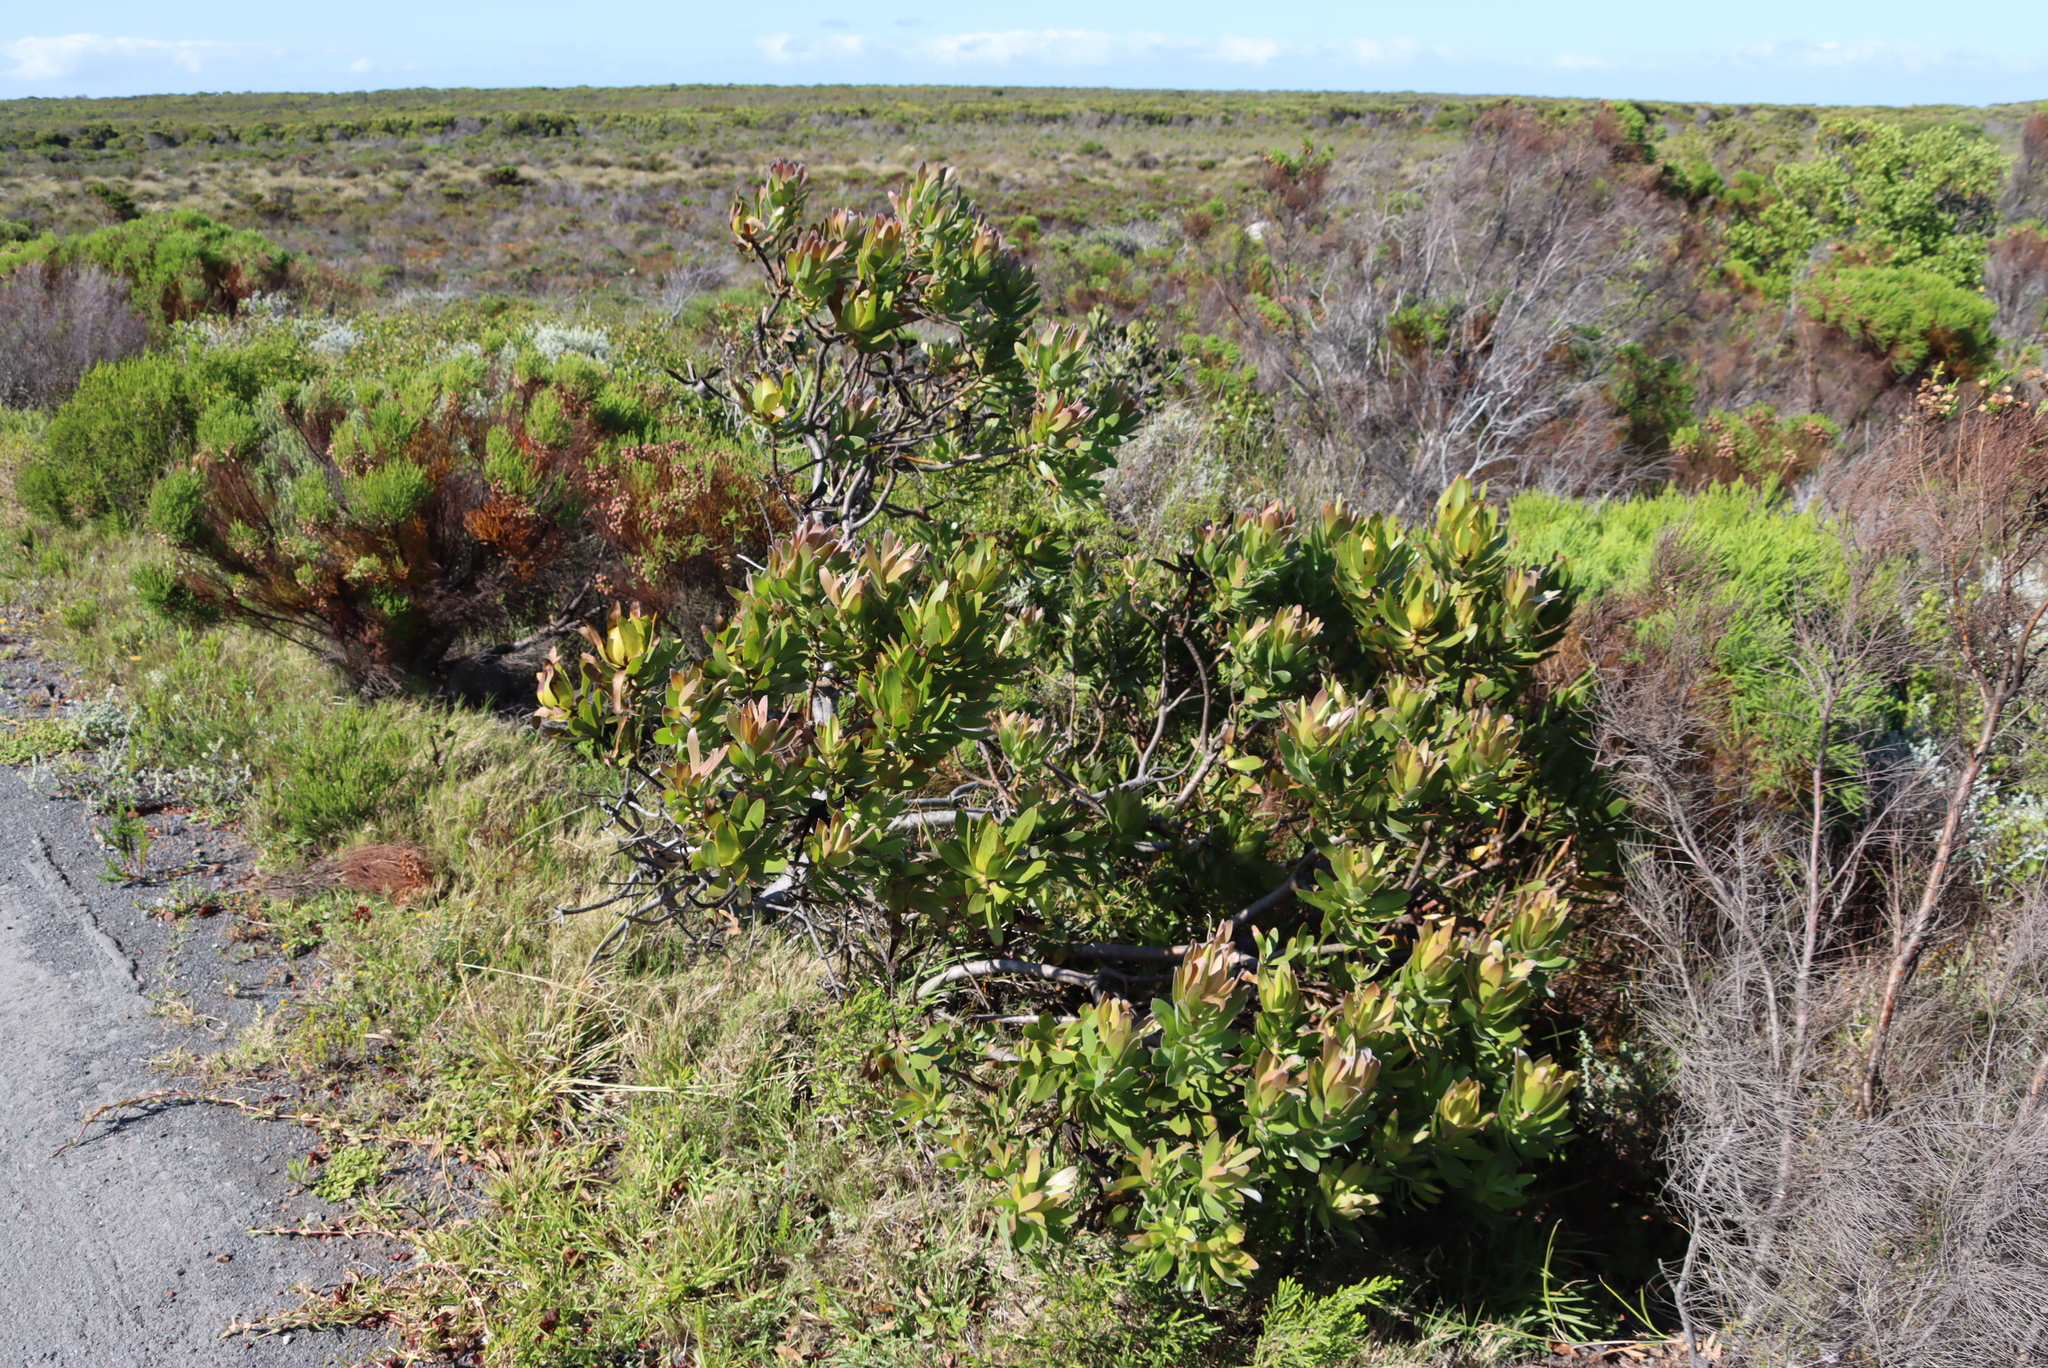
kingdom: Plantae
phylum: Tracheophyta
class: Magnoliopsida
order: Proteales
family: Proteaceae
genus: Leucadendron
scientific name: Leucadendron laureolum
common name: Golden sunshinebush
